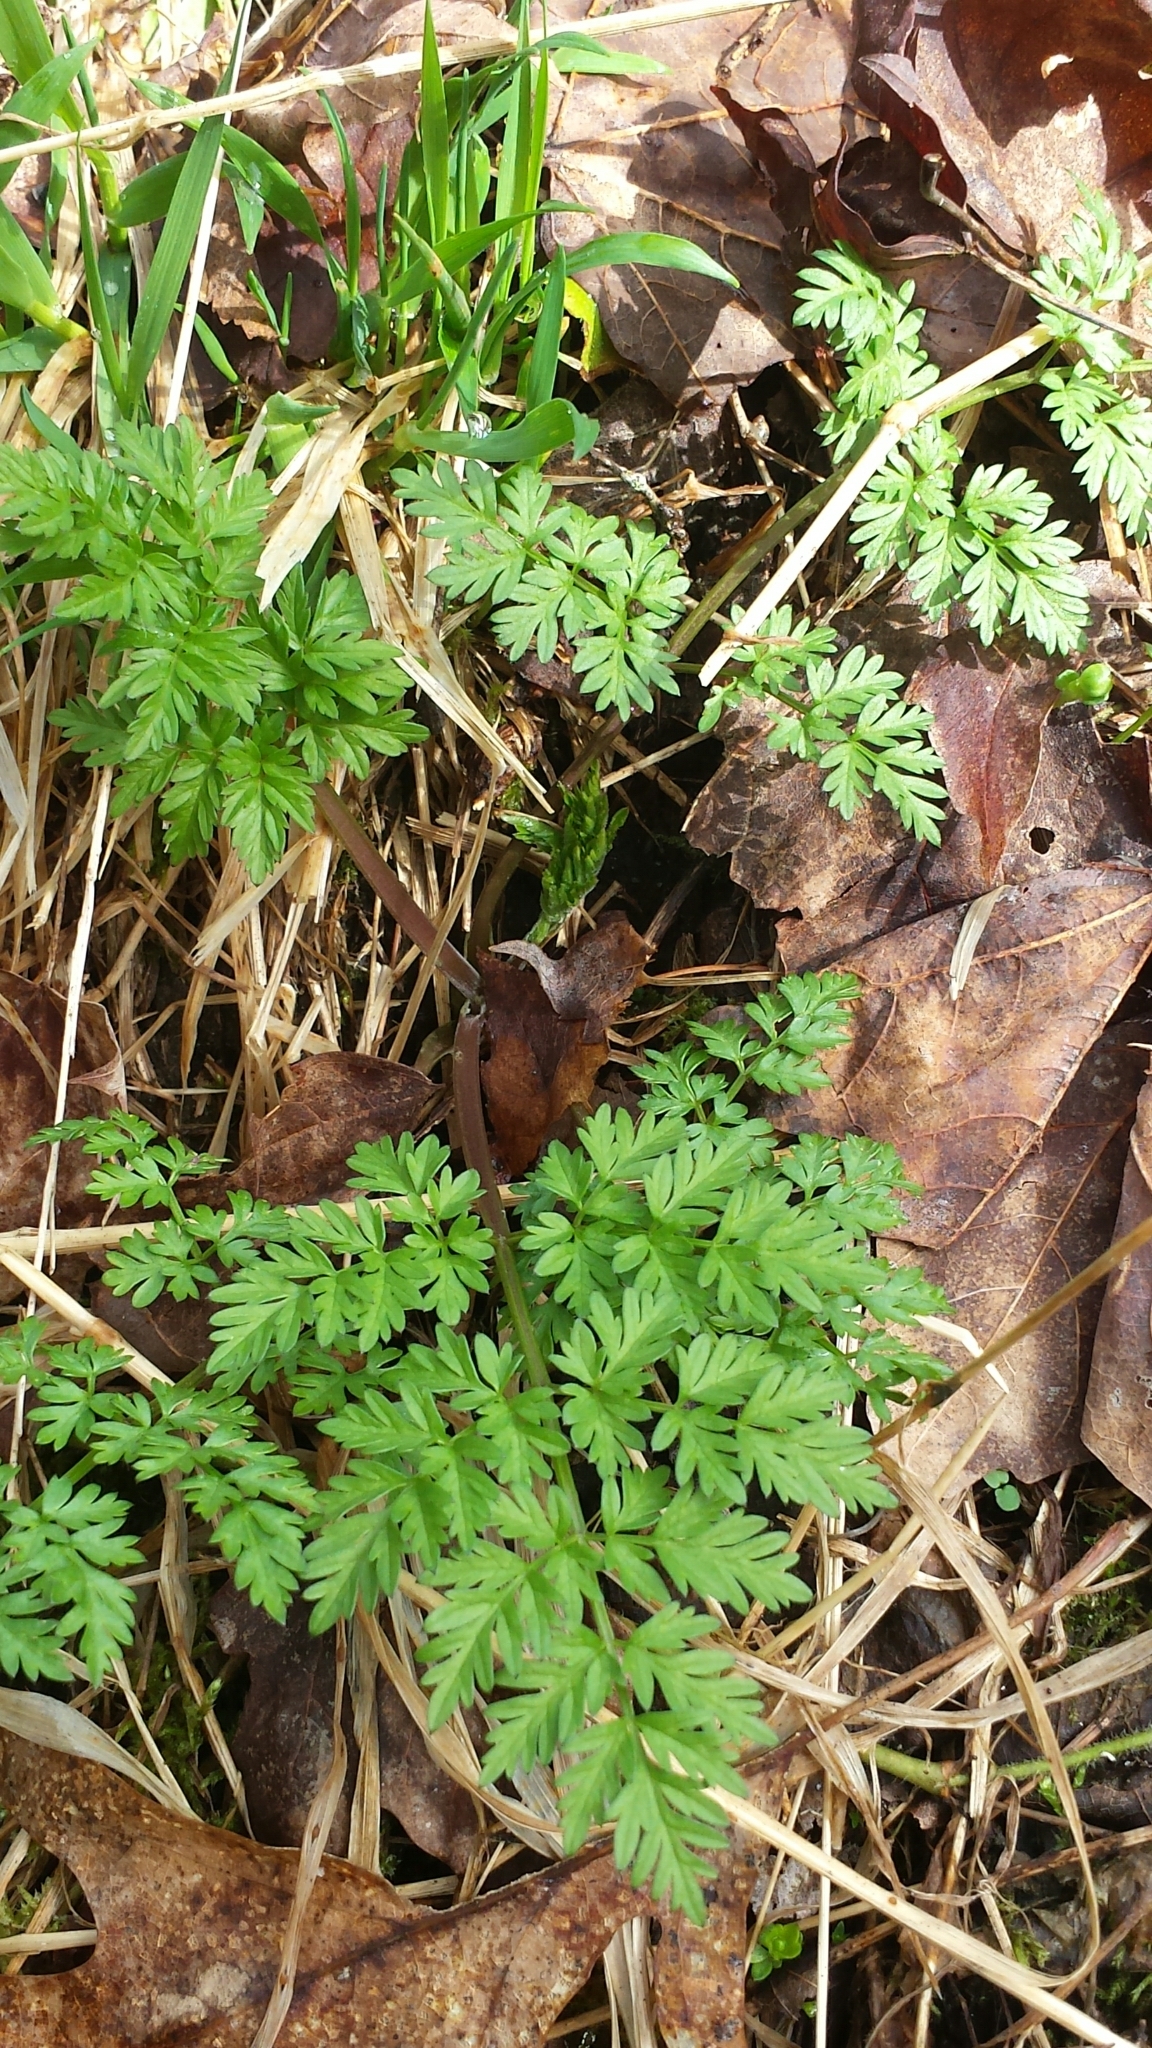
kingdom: Plantae
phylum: Tracheophyta
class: Magnoliopsida
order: Apiales
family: Apiaceae
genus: Anthriscus
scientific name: Anthriscus sylvestris
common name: Cow parsley
